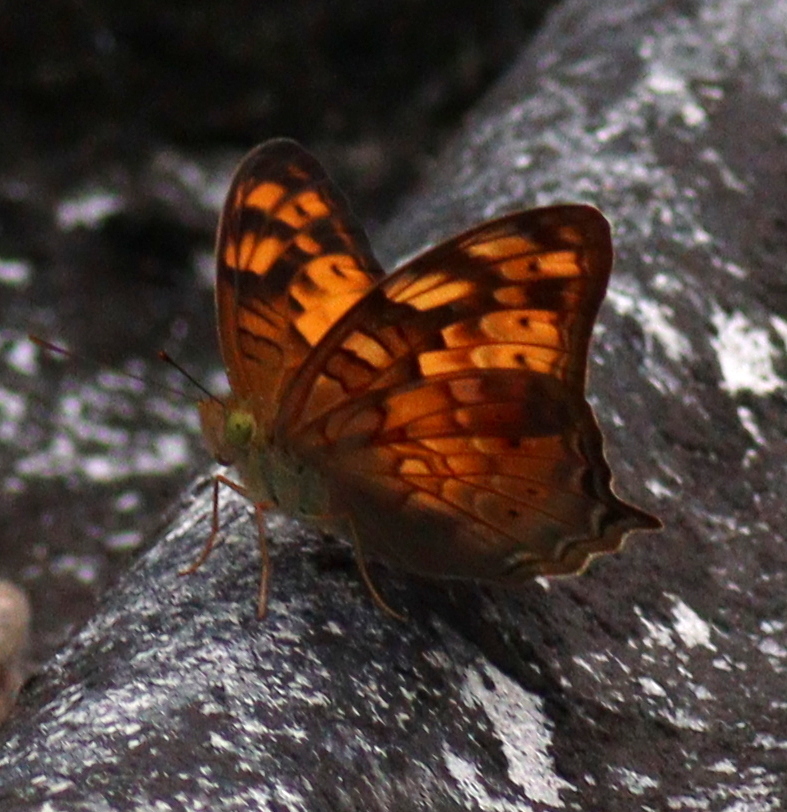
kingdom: Animalia
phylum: Arthropoda
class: Insecta
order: Lepidoptera
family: Nymphalidae
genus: Vagrans
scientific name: Vagrans sinha
